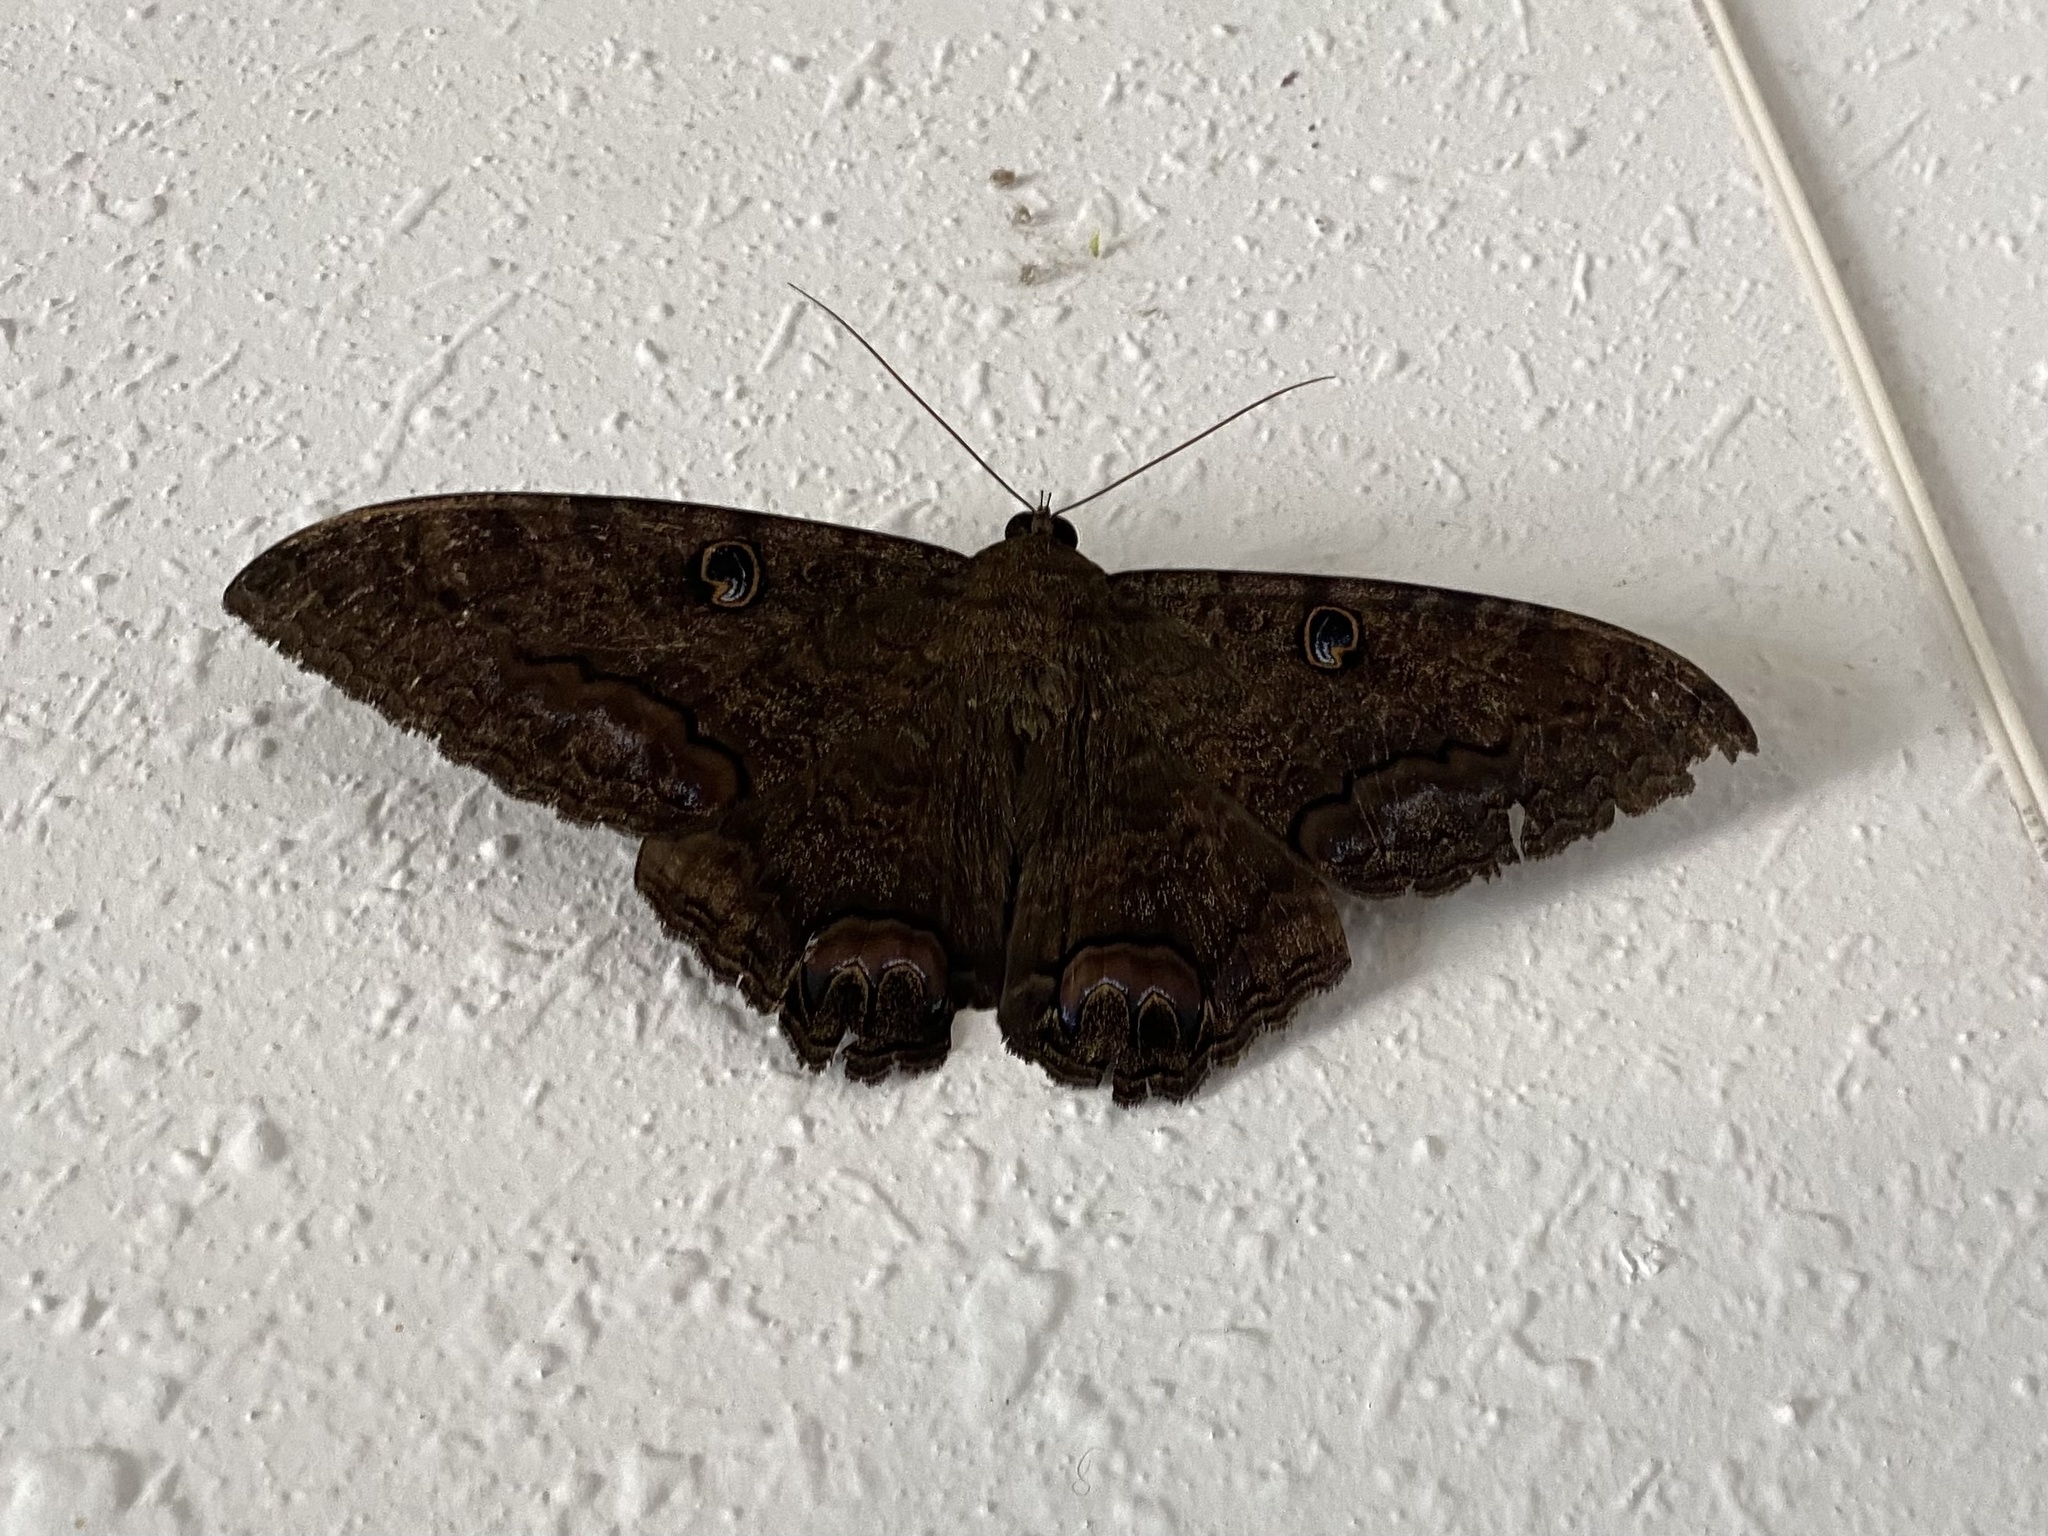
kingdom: Animalia
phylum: Arthropoda
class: Insecta
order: Lepidoptera
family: Erebidae
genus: Ascalapha
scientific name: Ascalapha odorata
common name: Black witch
